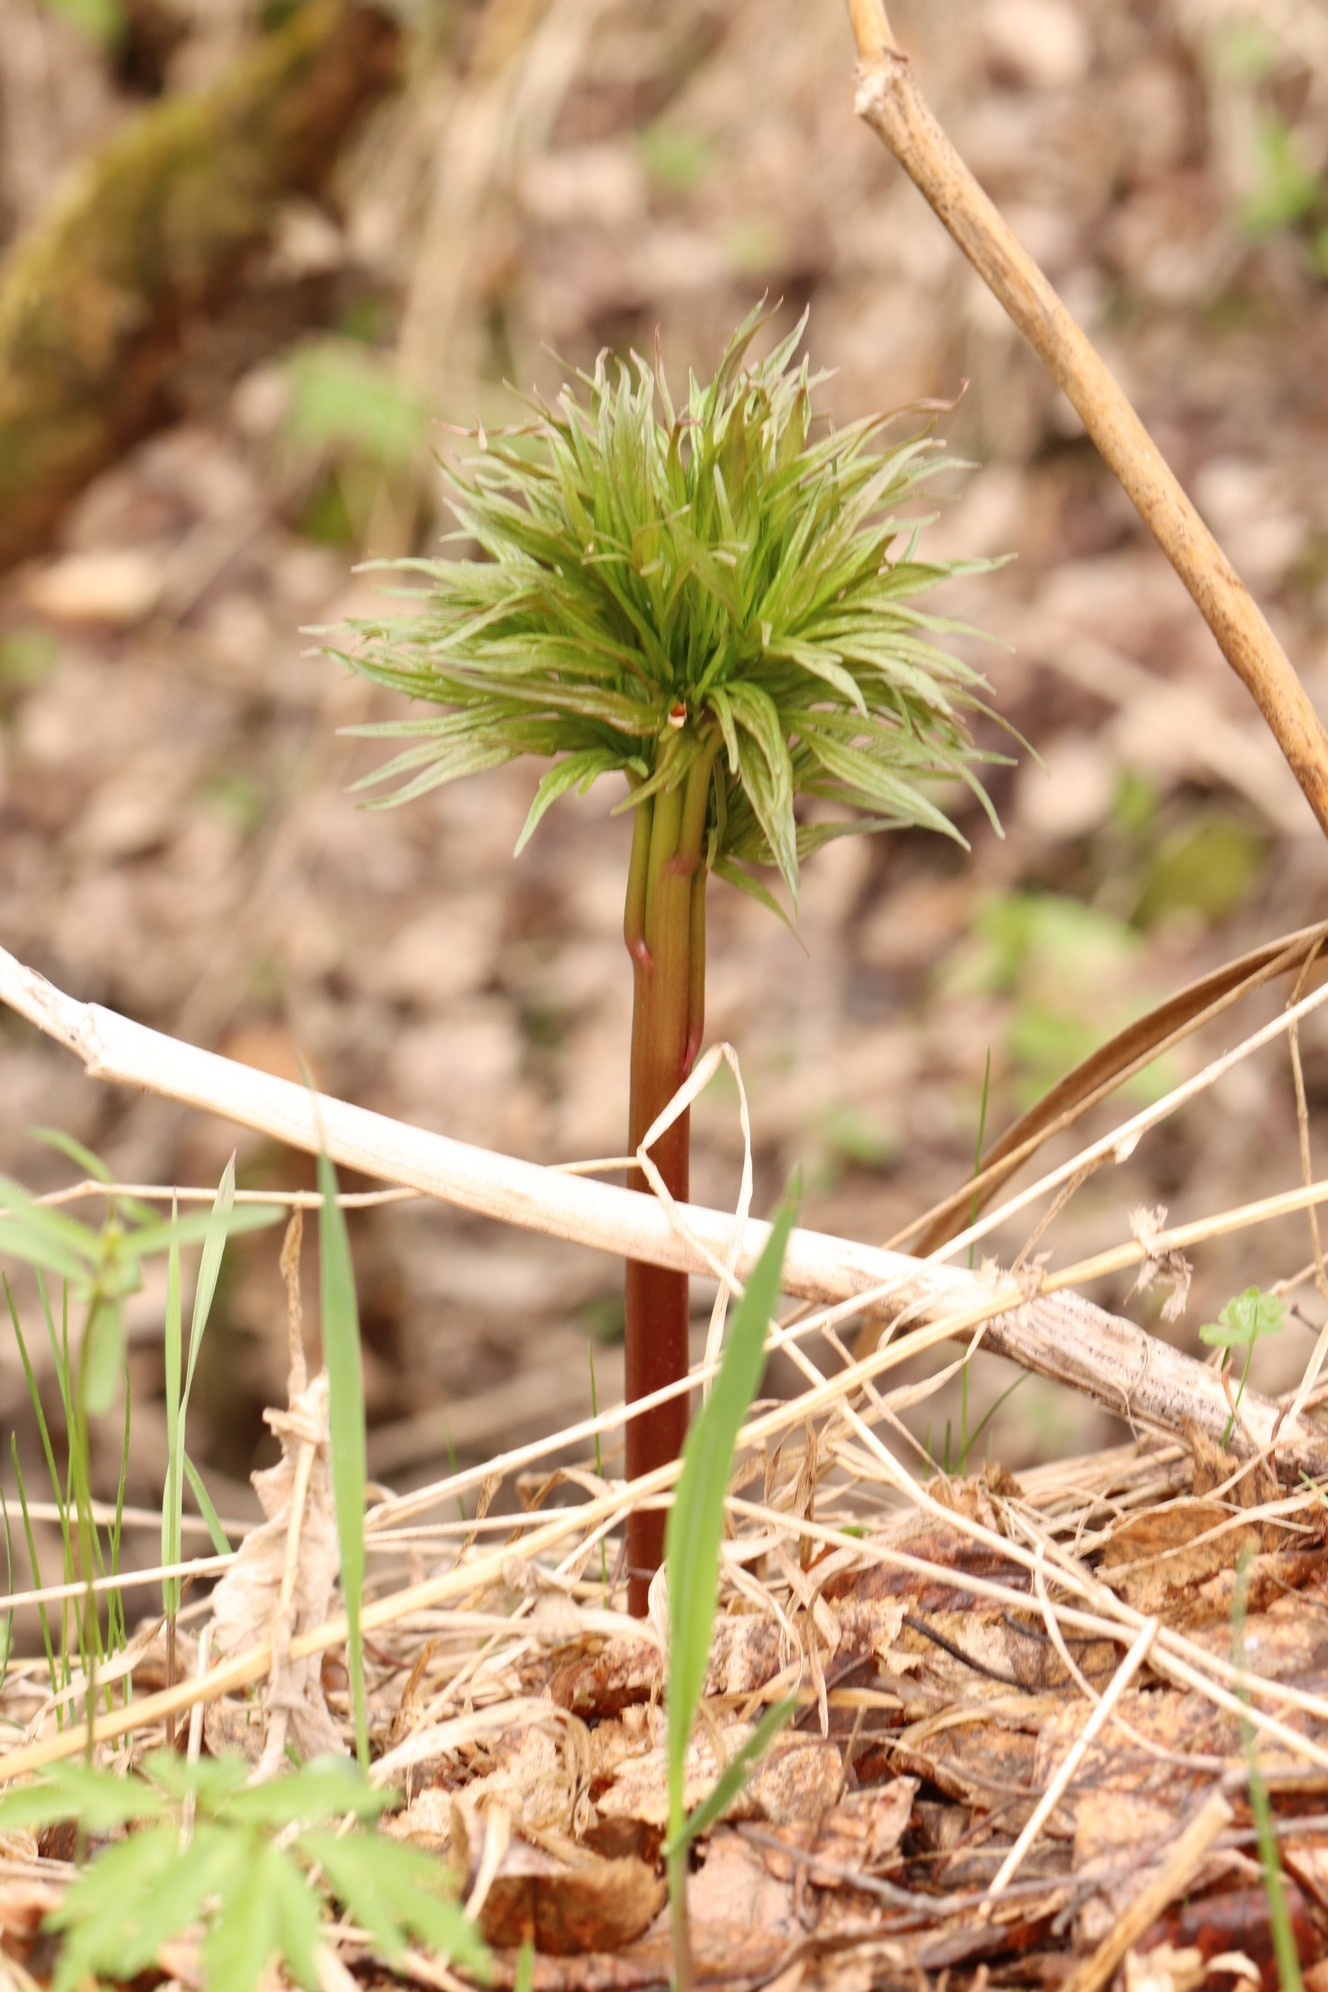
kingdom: Plantae
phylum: Tracheophyta
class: Magnoliopsida
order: Saxifragales
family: Paeoniaceae
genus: Paeonia
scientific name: Paeonia anomala
